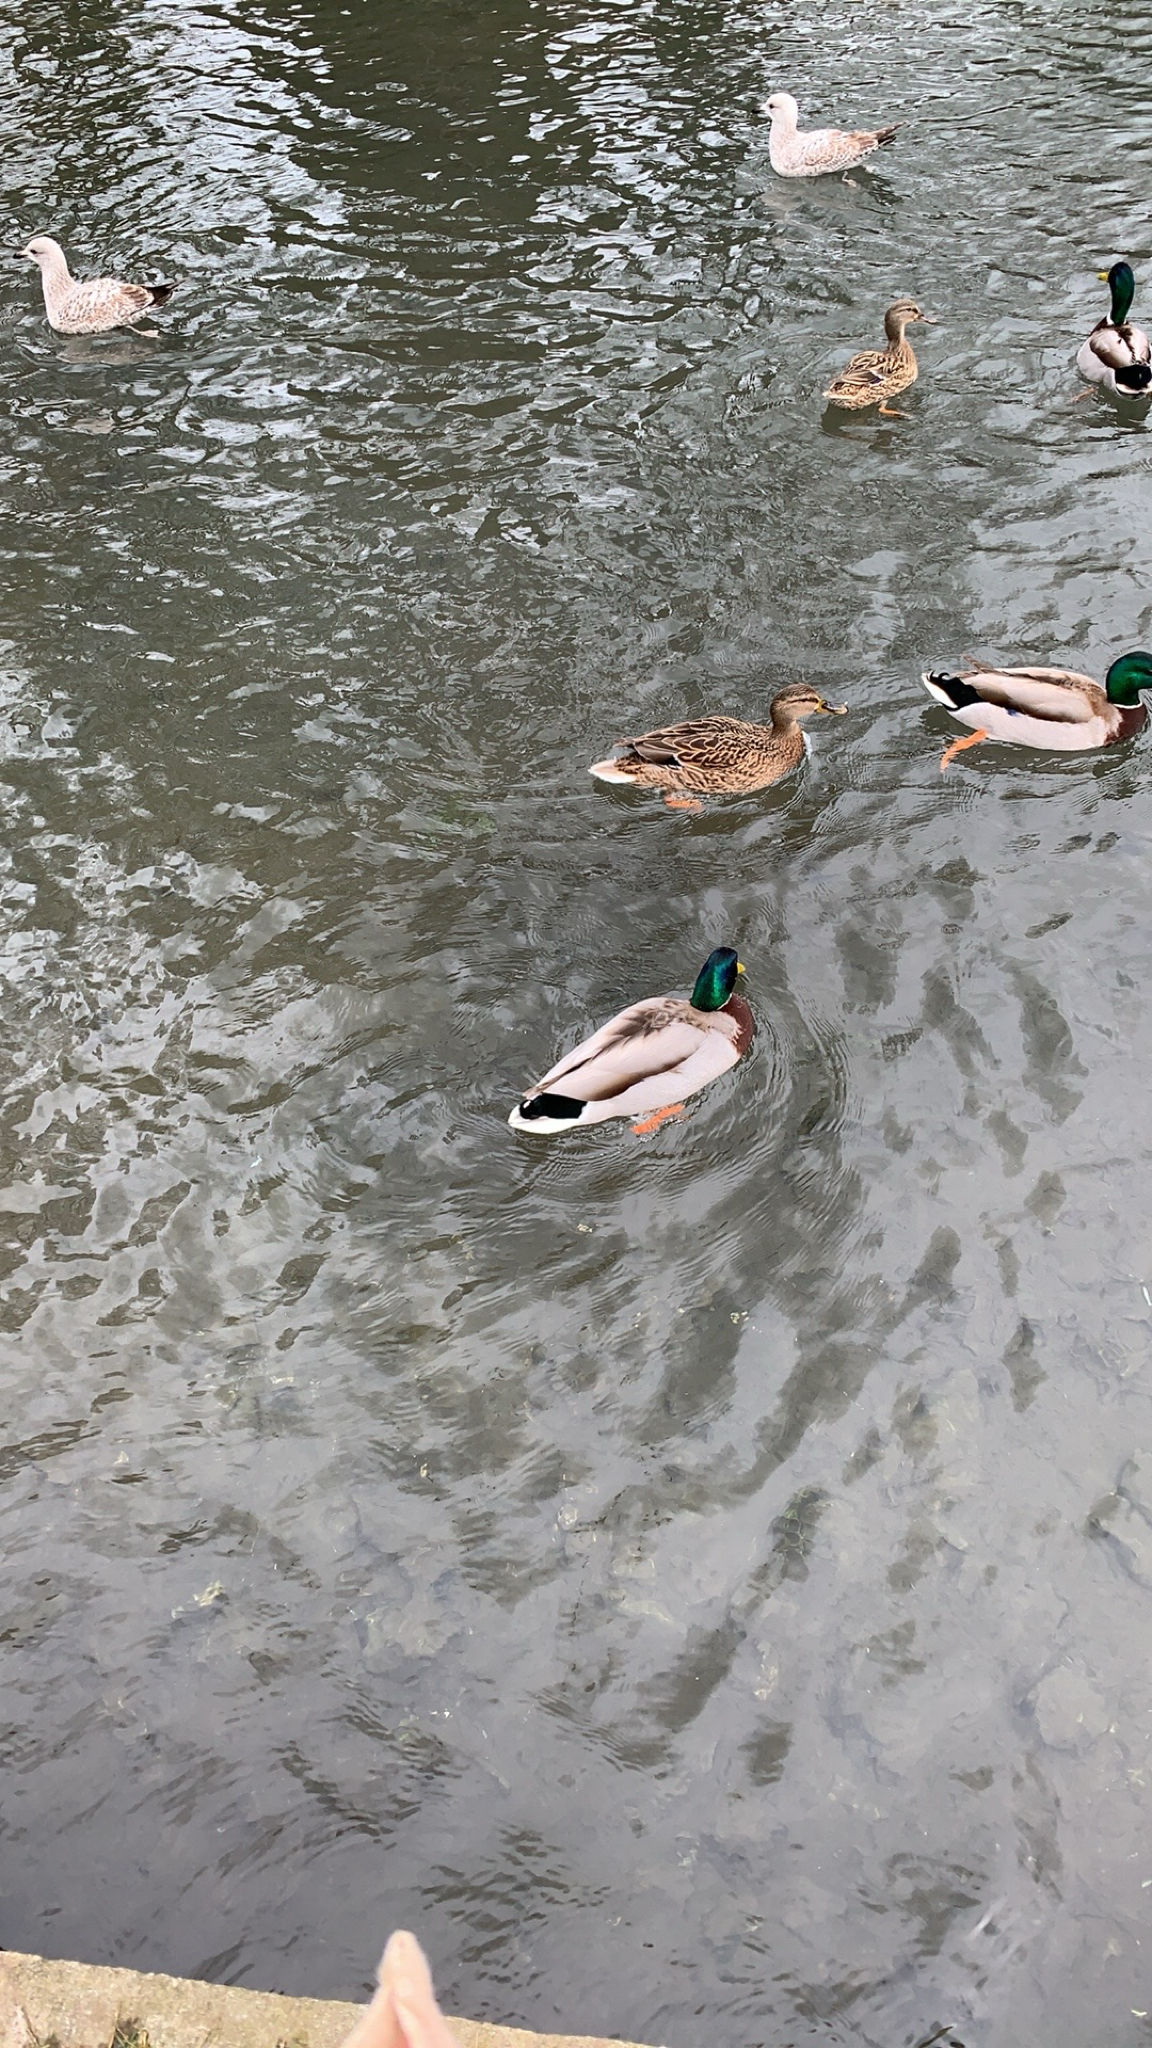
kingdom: Animalia
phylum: Chordata
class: Aves
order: Anseriformes
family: Anatidae
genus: Anas
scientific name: Anas platyrhynchos
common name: Mallard
